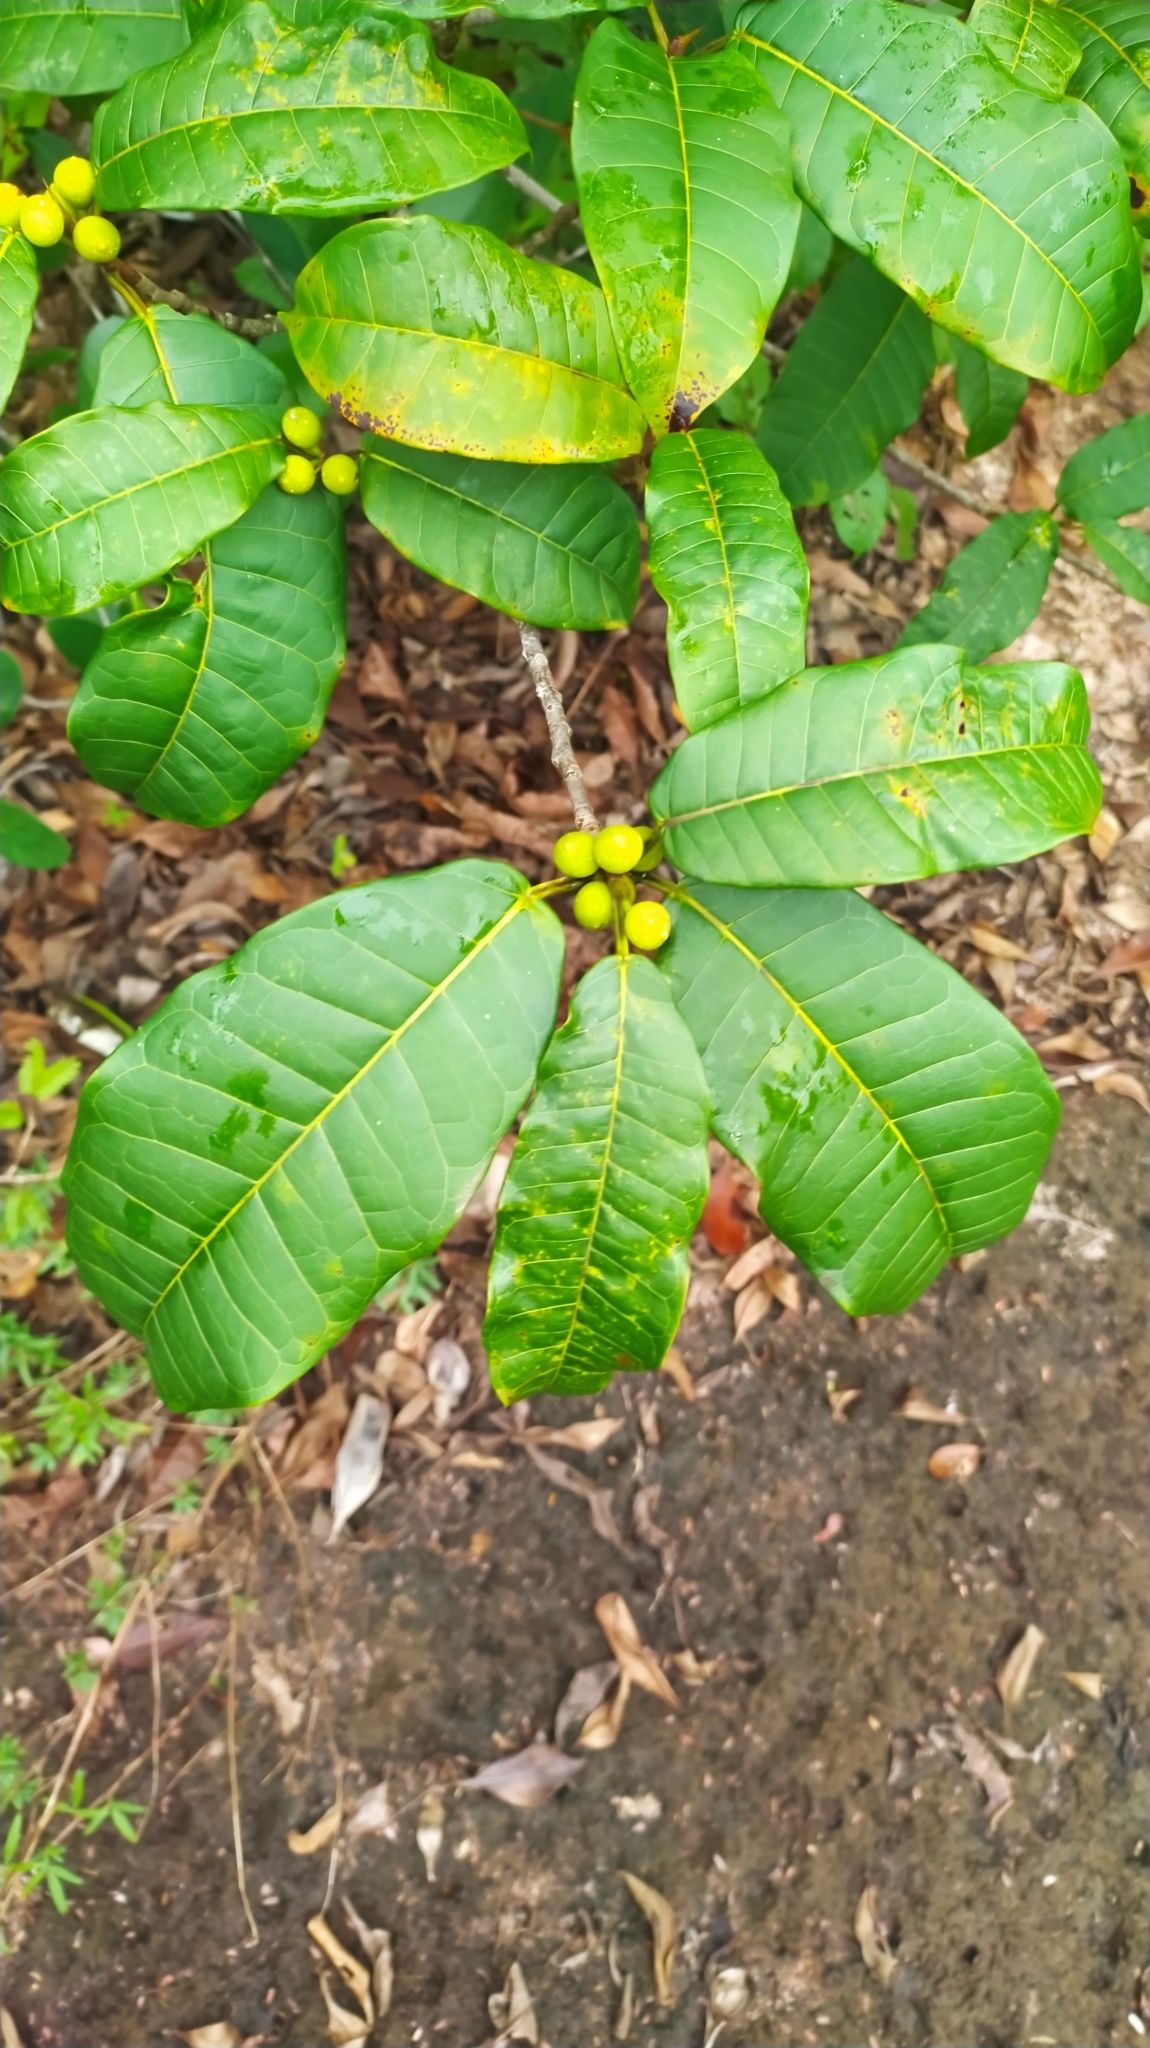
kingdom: Plantae
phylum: Tracheophyta
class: Magnoliopsida
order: Rosales
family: Moraceae
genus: Ficus
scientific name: Ficus cremersii
